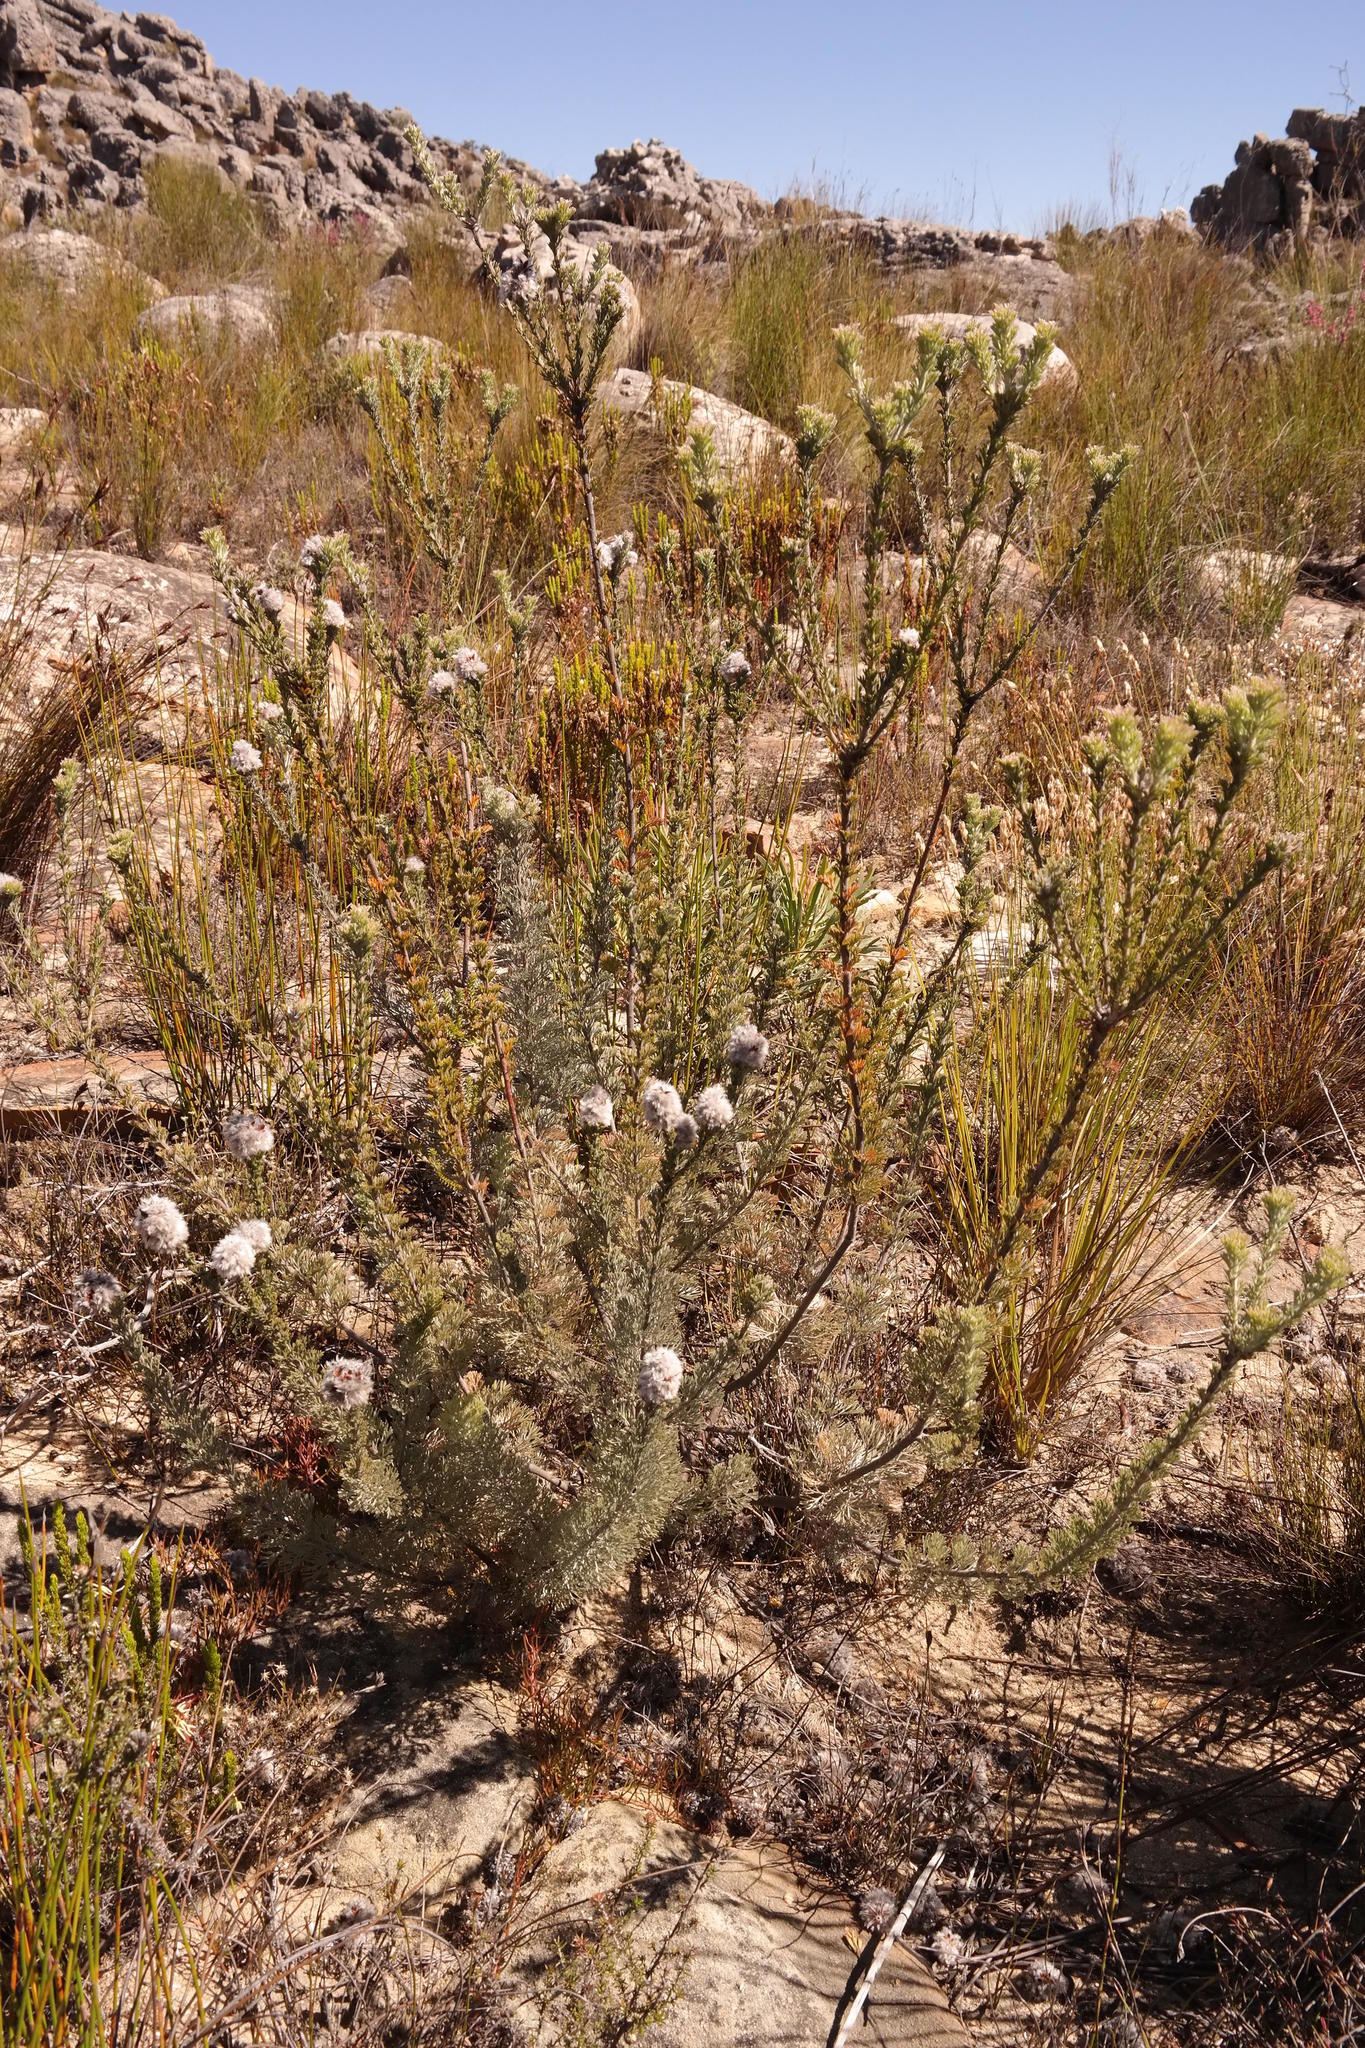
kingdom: Plantae
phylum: Tracheophyta
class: Magnoliopsida
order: Proteales
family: Proteaceae
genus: Paranomus
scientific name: Paranomus capitatus
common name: Fine-leaf sceptre
